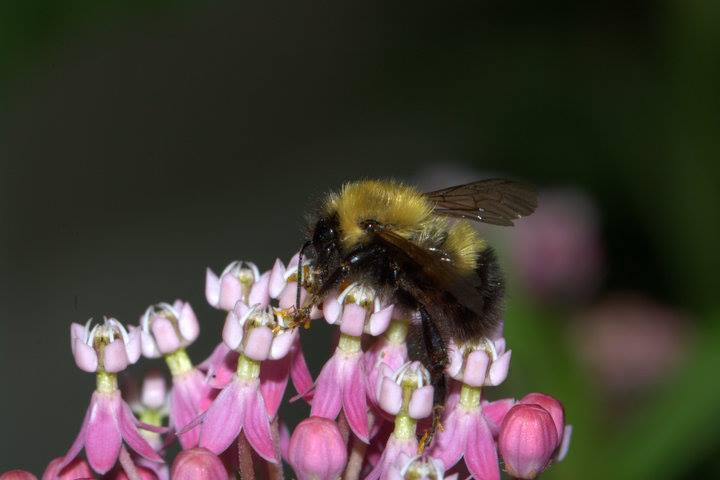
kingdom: Animalia
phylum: Arthropoda
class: Insecta
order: Hymenoptera
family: Apidae
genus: Bombus
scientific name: Bombus perplexus
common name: Confusing bumble bee
